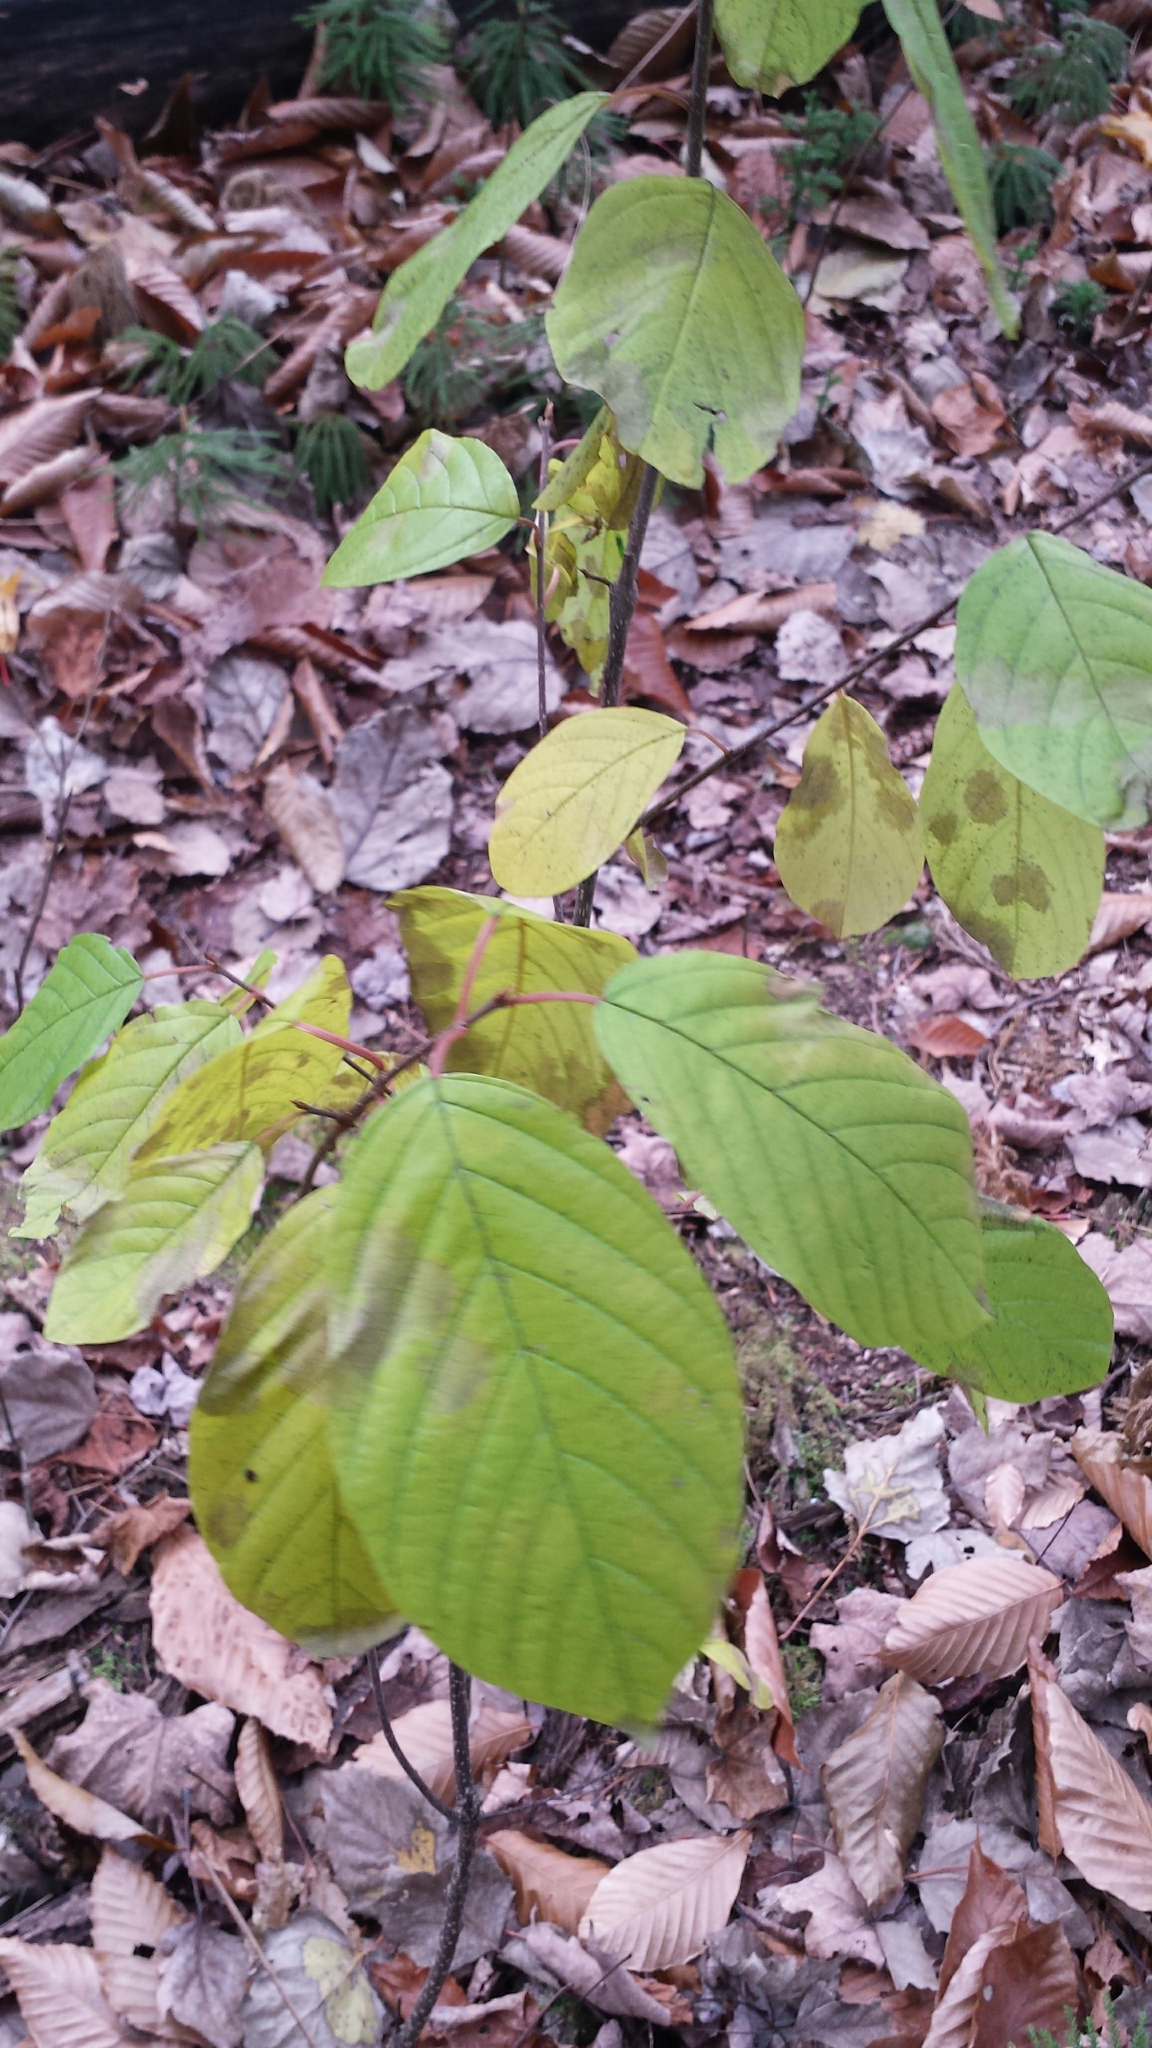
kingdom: Plantae
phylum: Tracheophyta
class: Magnoliopsida
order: Rosales
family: Rhamnaceae
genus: Frangula
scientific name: Frangula alnus
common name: Alder buckthorn
